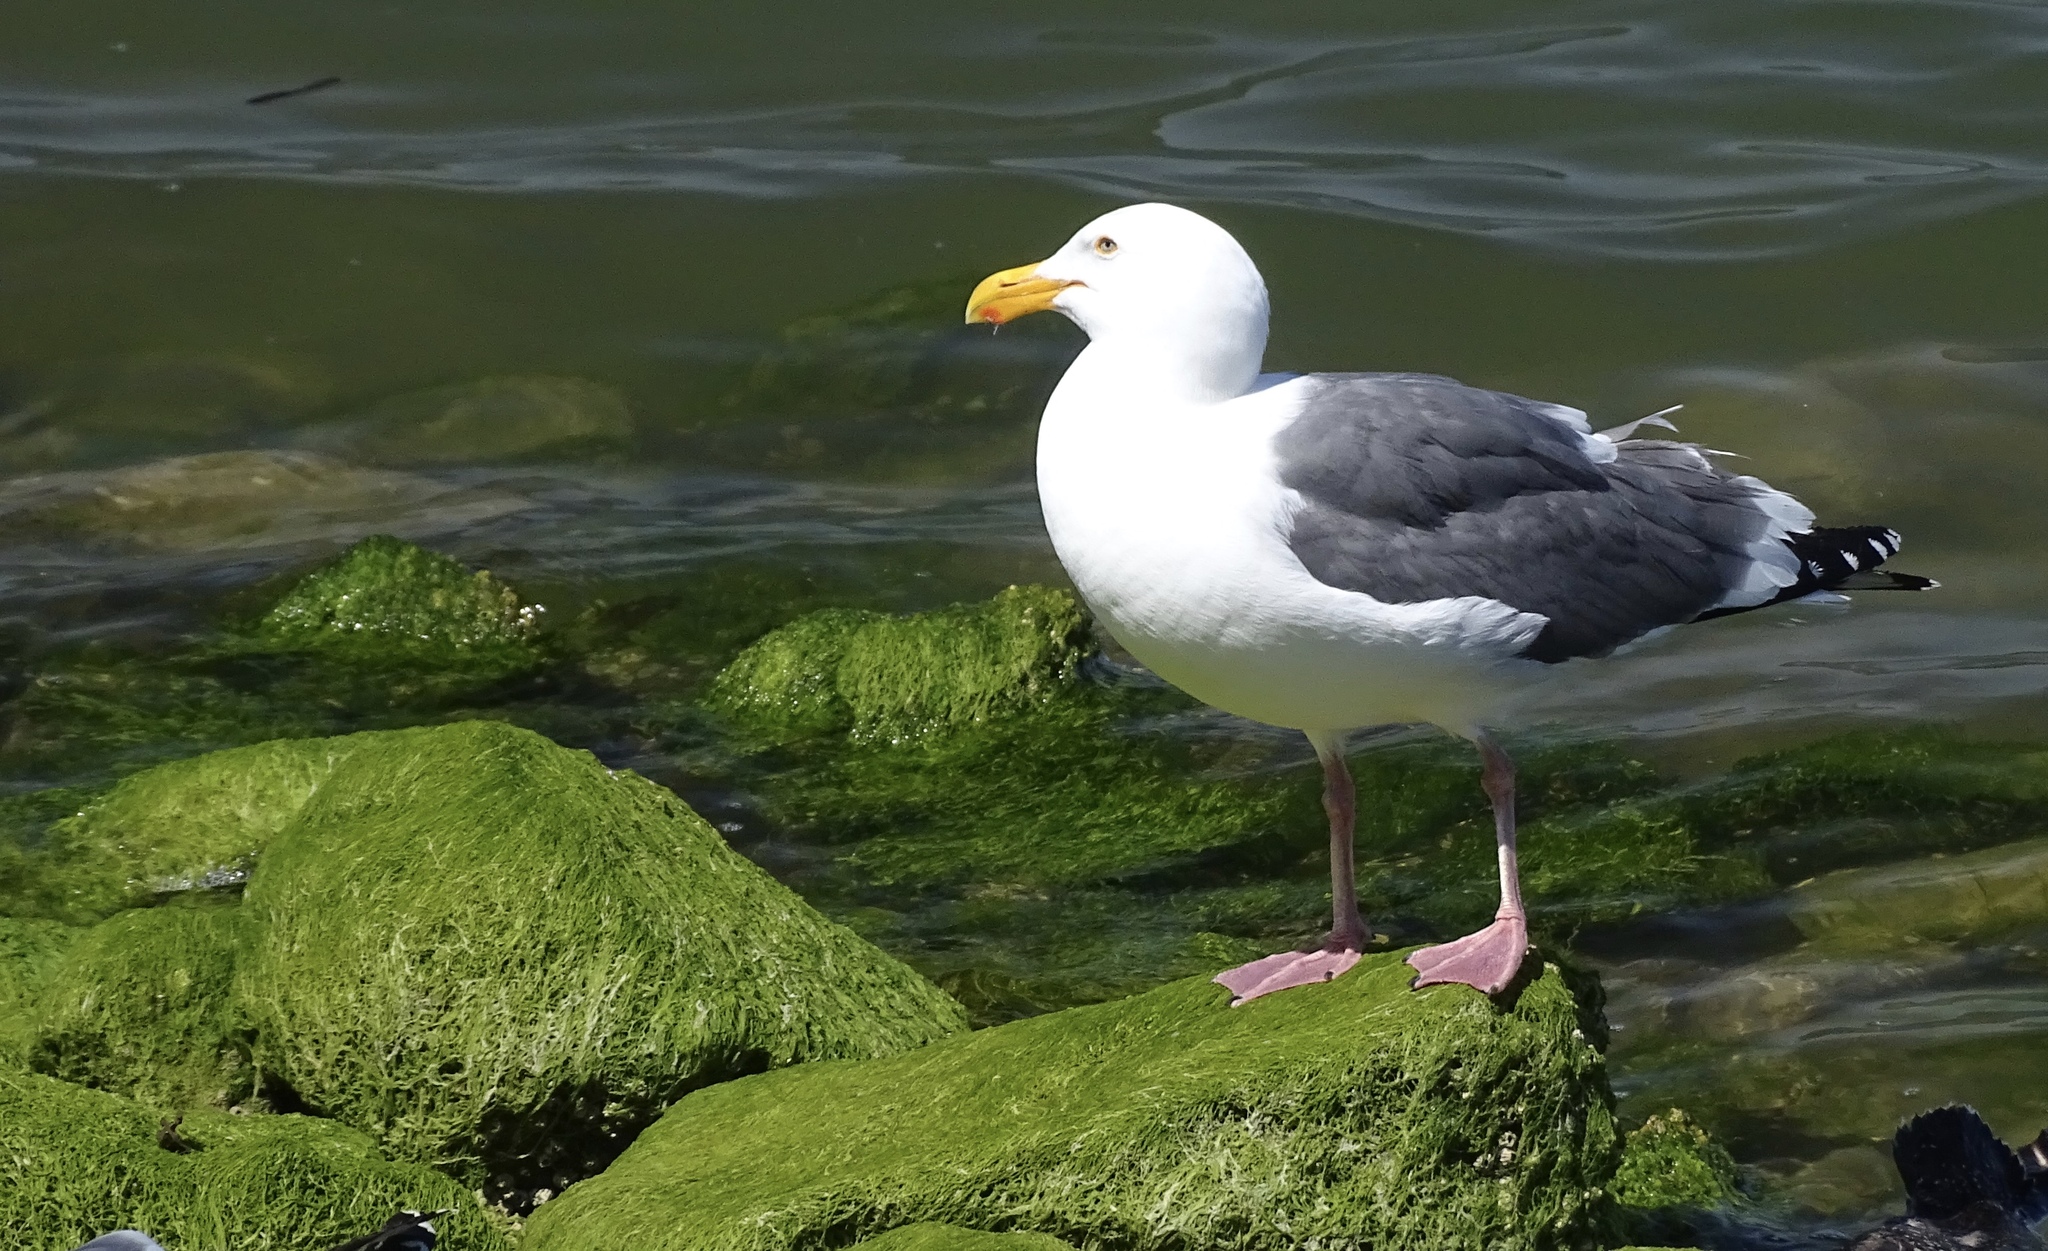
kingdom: Animalia
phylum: Chordata
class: Aves
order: Charadriiformes
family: Laridae
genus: Larus
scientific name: Larus occidentalis
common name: Western gull
